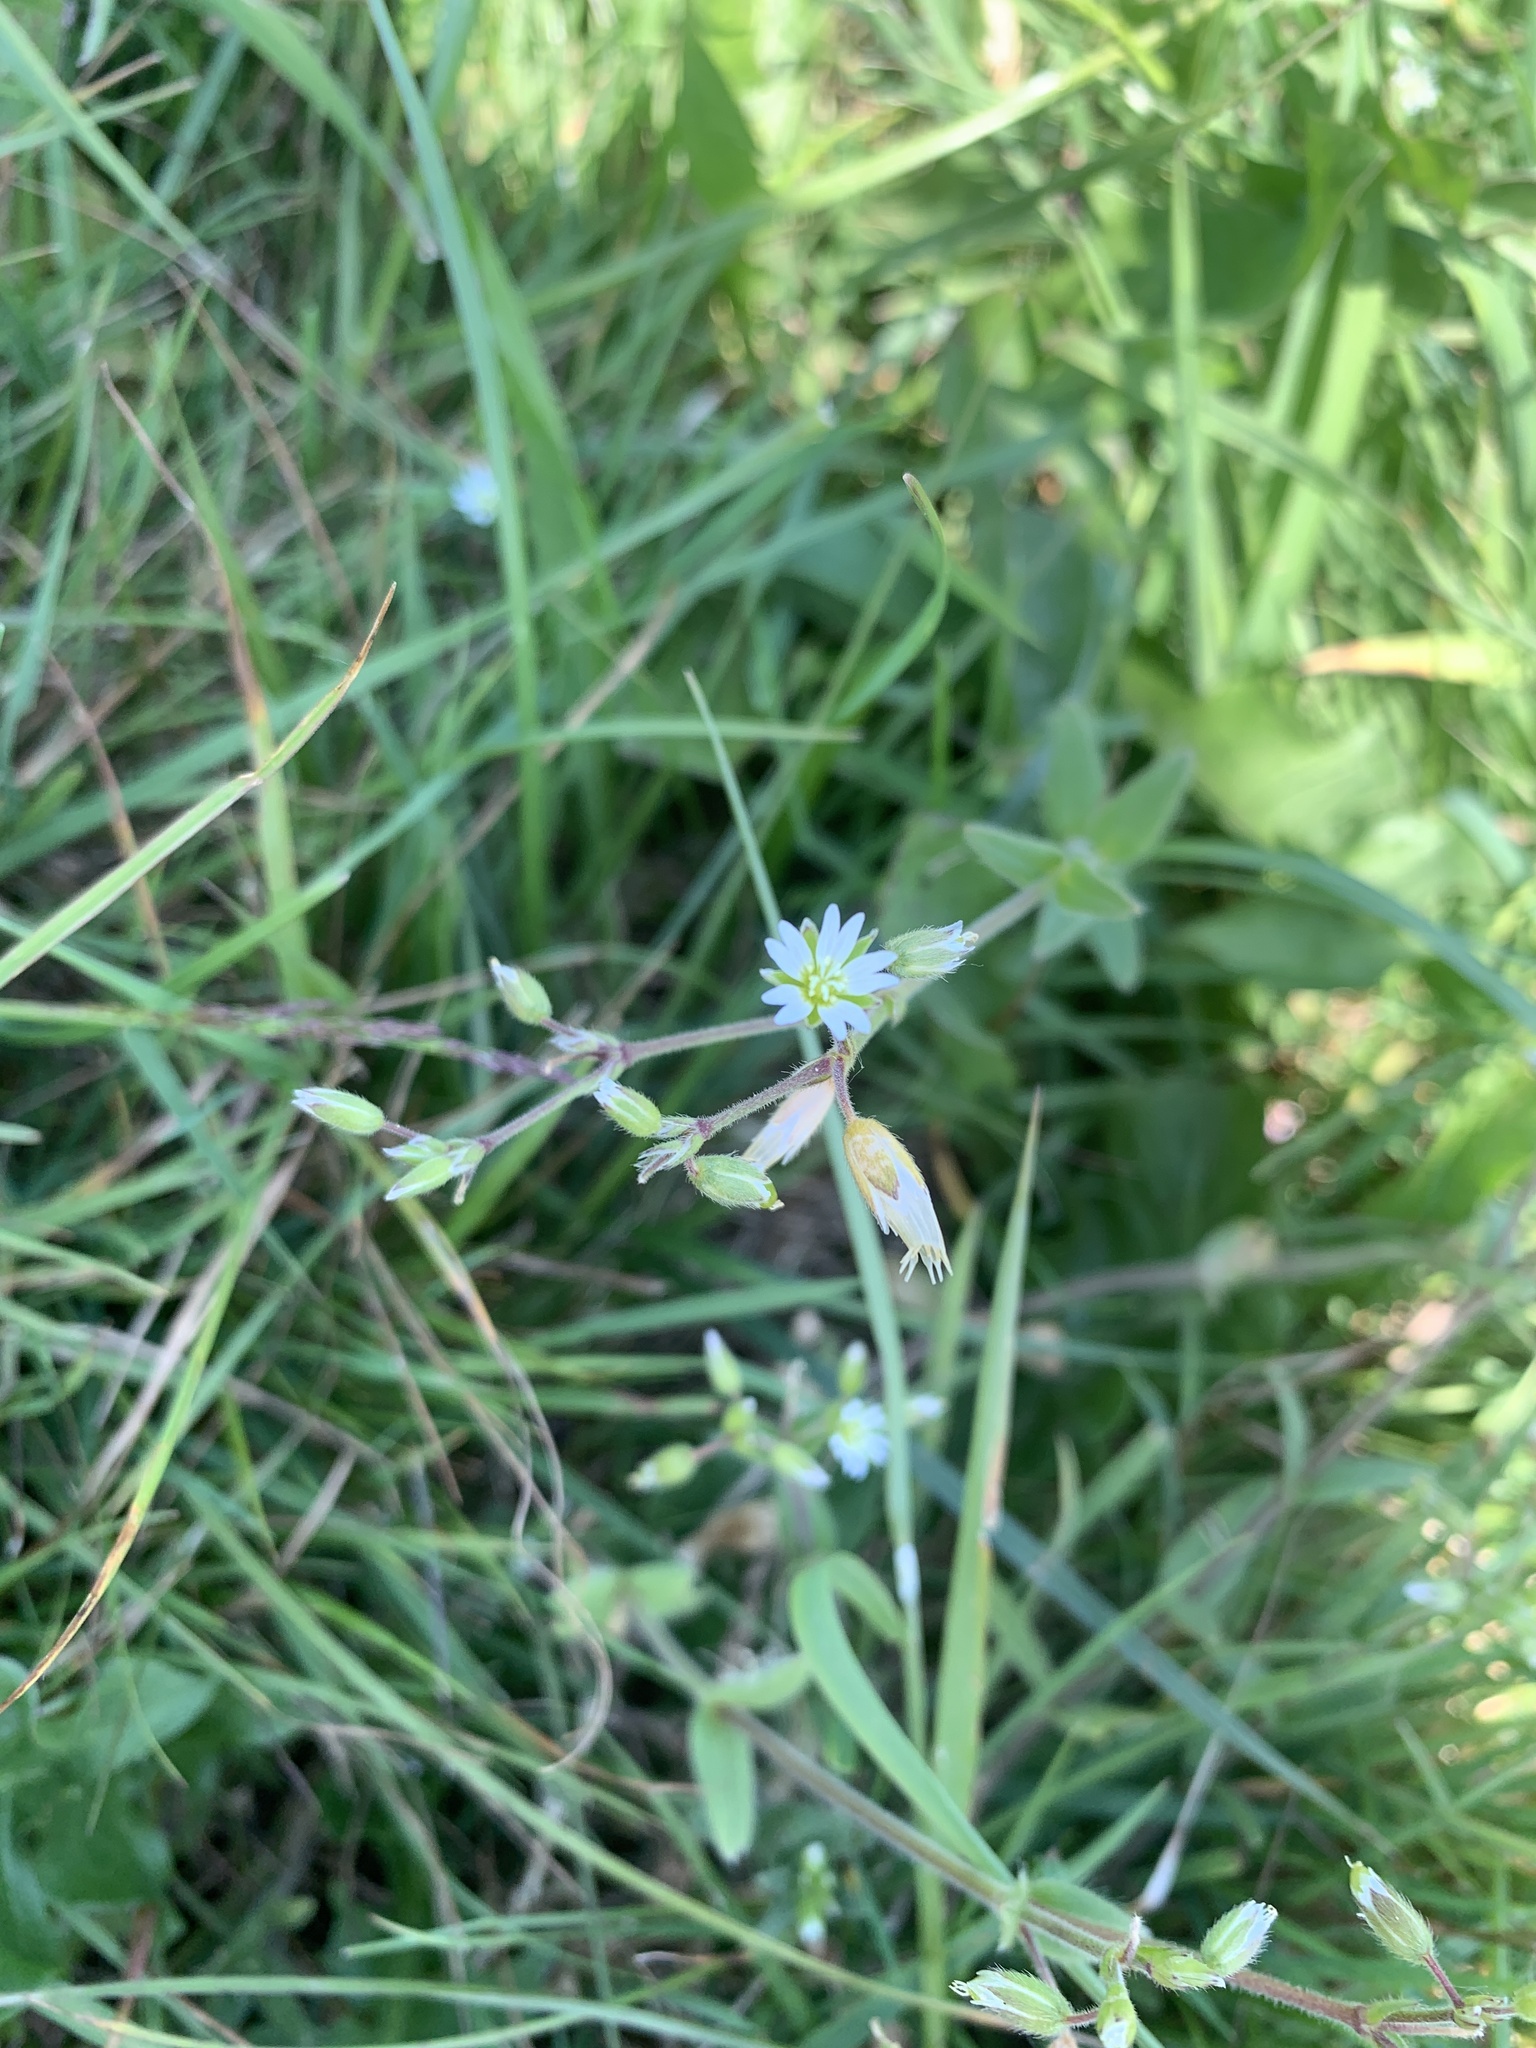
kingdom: Plantae
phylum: Tracheophyta
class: Magnoliopsida
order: Caryophyllales
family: Caryophyllaceae
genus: Cerastium
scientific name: Cerastium fontanum
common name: Common mouse-ear
